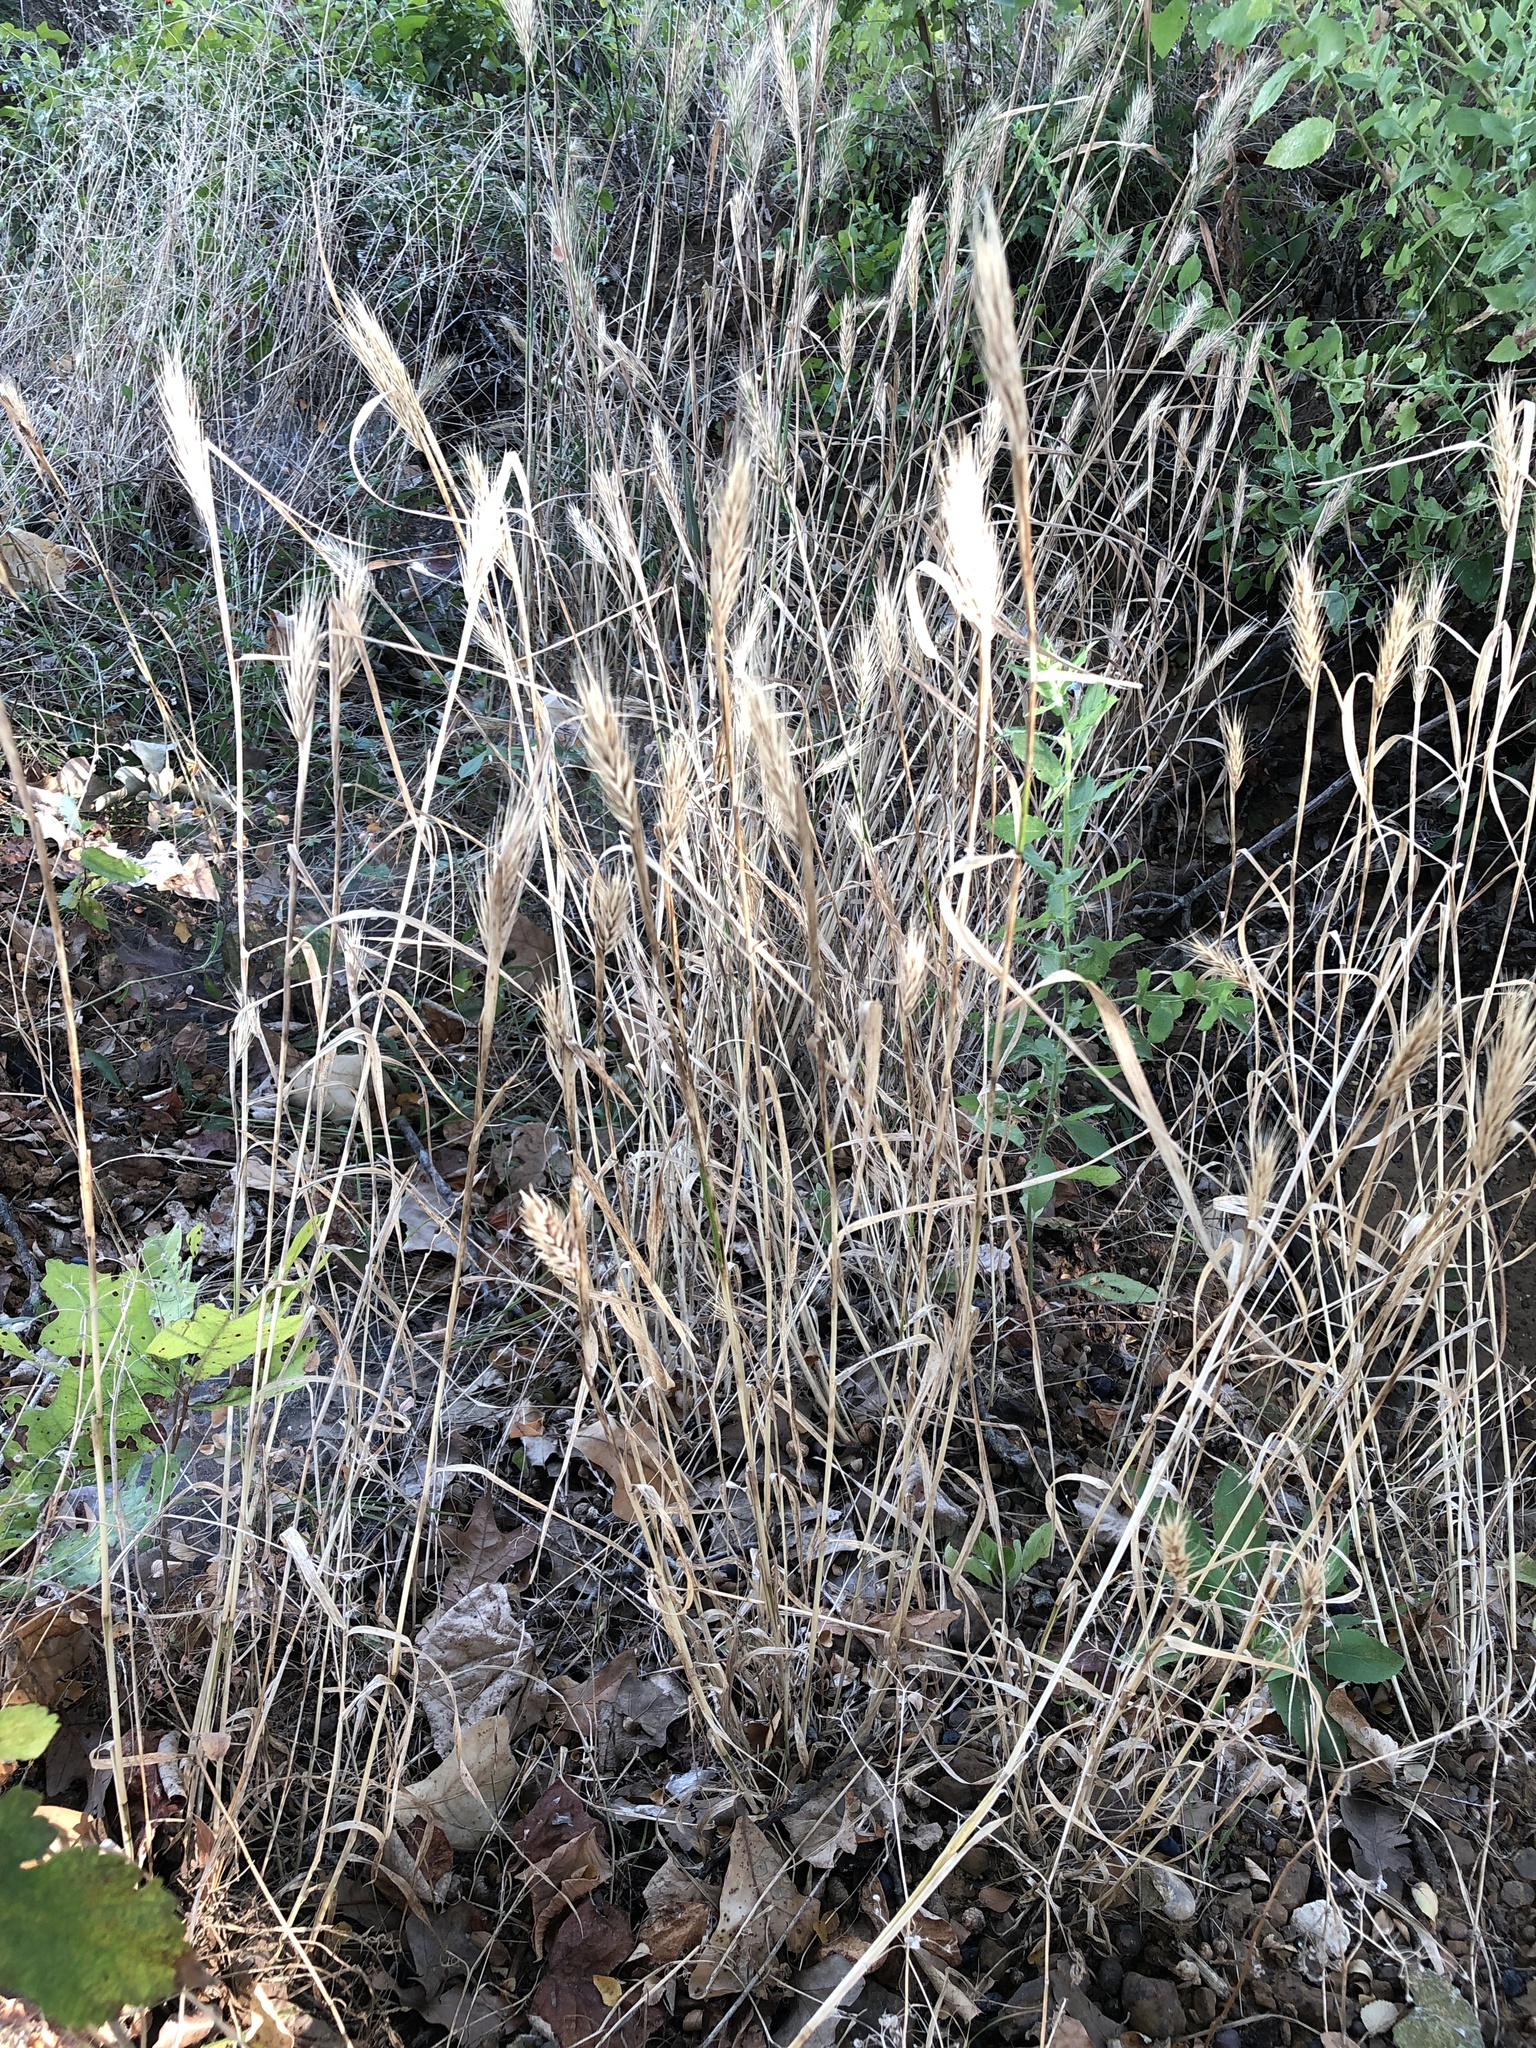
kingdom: Plantae
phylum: Tracheophyta
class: Liliopsida
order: Poales
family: Poaceae
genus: Elymus
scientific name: Elymus virginicus
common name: Common eastern wildrye
